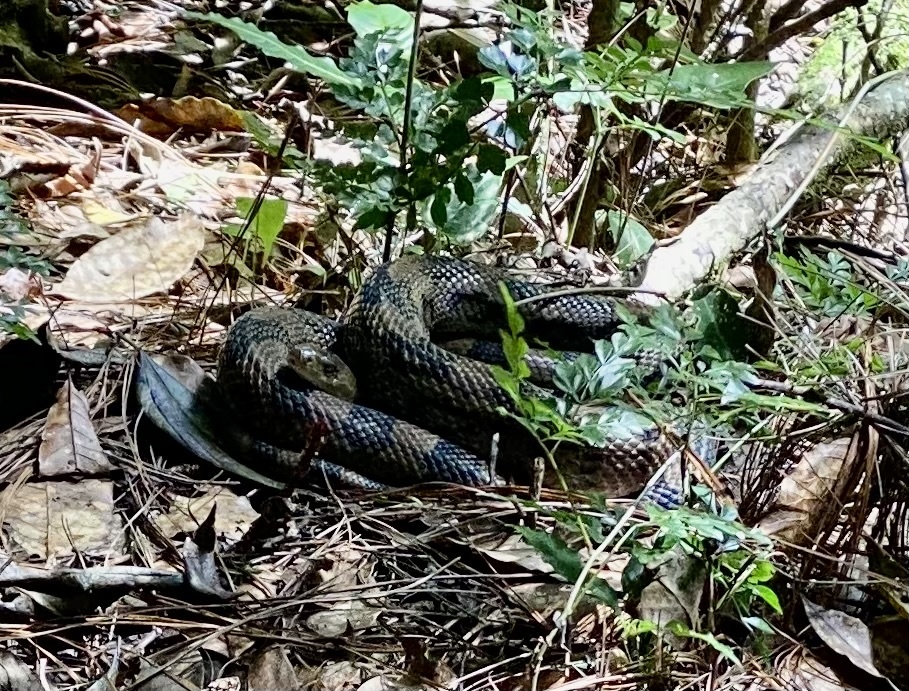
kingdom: Animalia
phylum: Chordata
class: Squamata
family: Colubridae
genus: Pituophis
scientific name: Pituophis lineaticollis
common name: Cincuate bull snake
